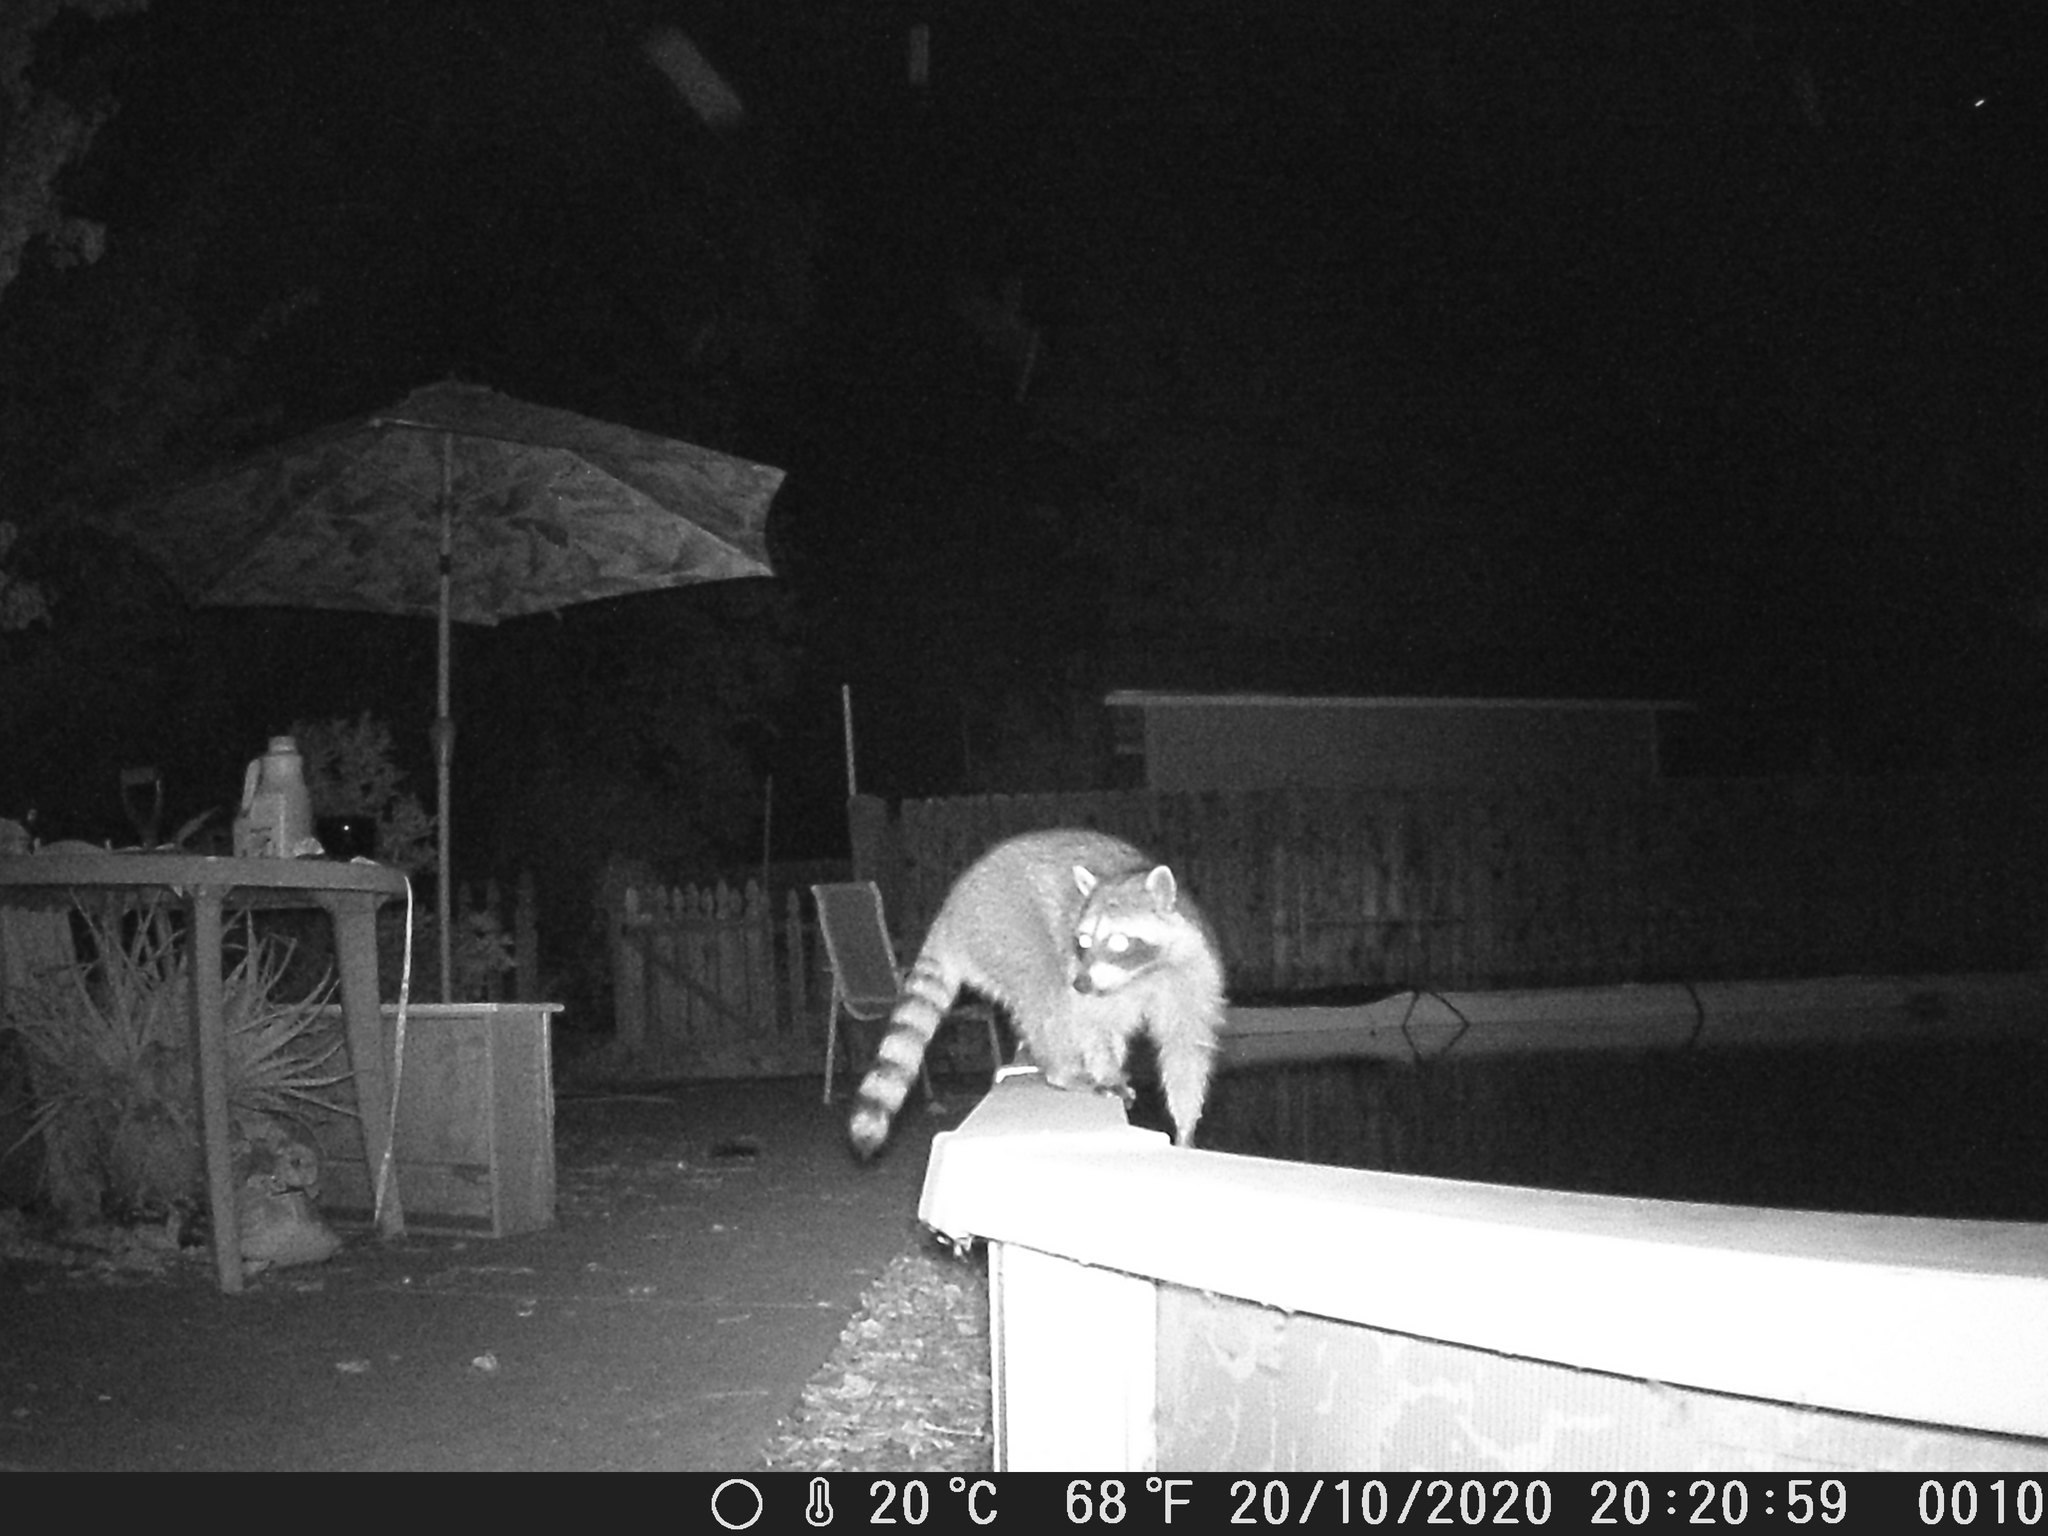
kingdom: Animalia
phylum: Chordata
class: Mammalia
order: Carnivora
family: Procyonidae
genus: Procyon
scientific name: Procyon lotor
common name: Raccoon
